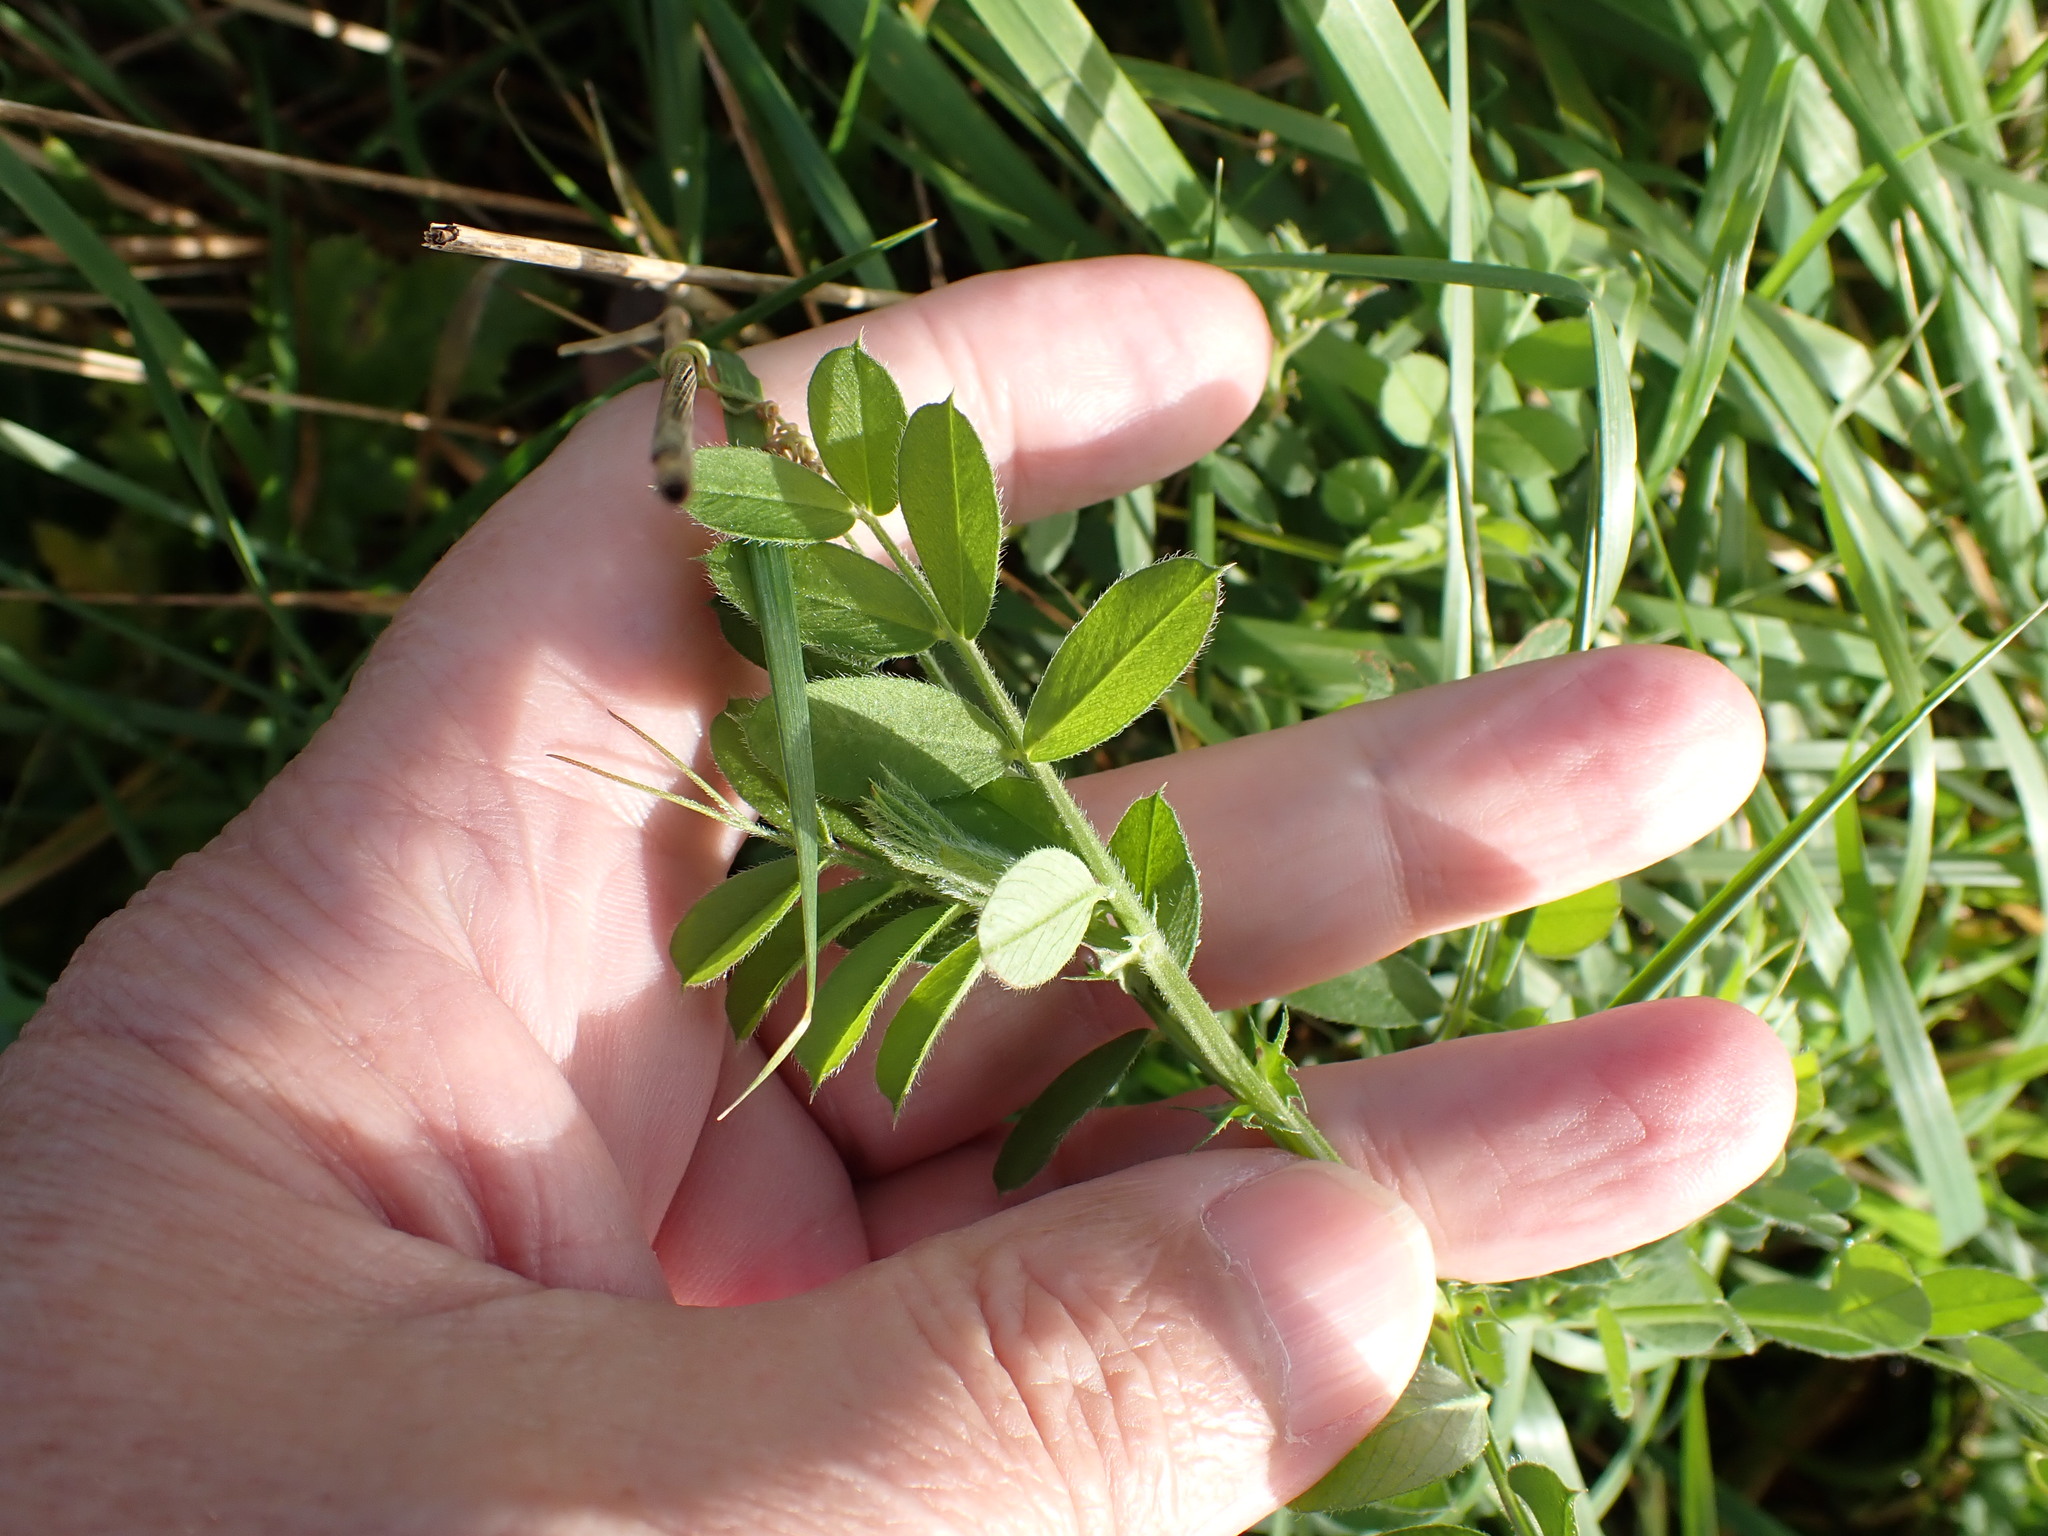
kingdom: Plantae
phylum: Tracheophyta
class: Magnoliopsida
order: Fabales
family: Fabaceae
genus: Vicia
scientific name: Vicia sativa
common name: Garden vetch
